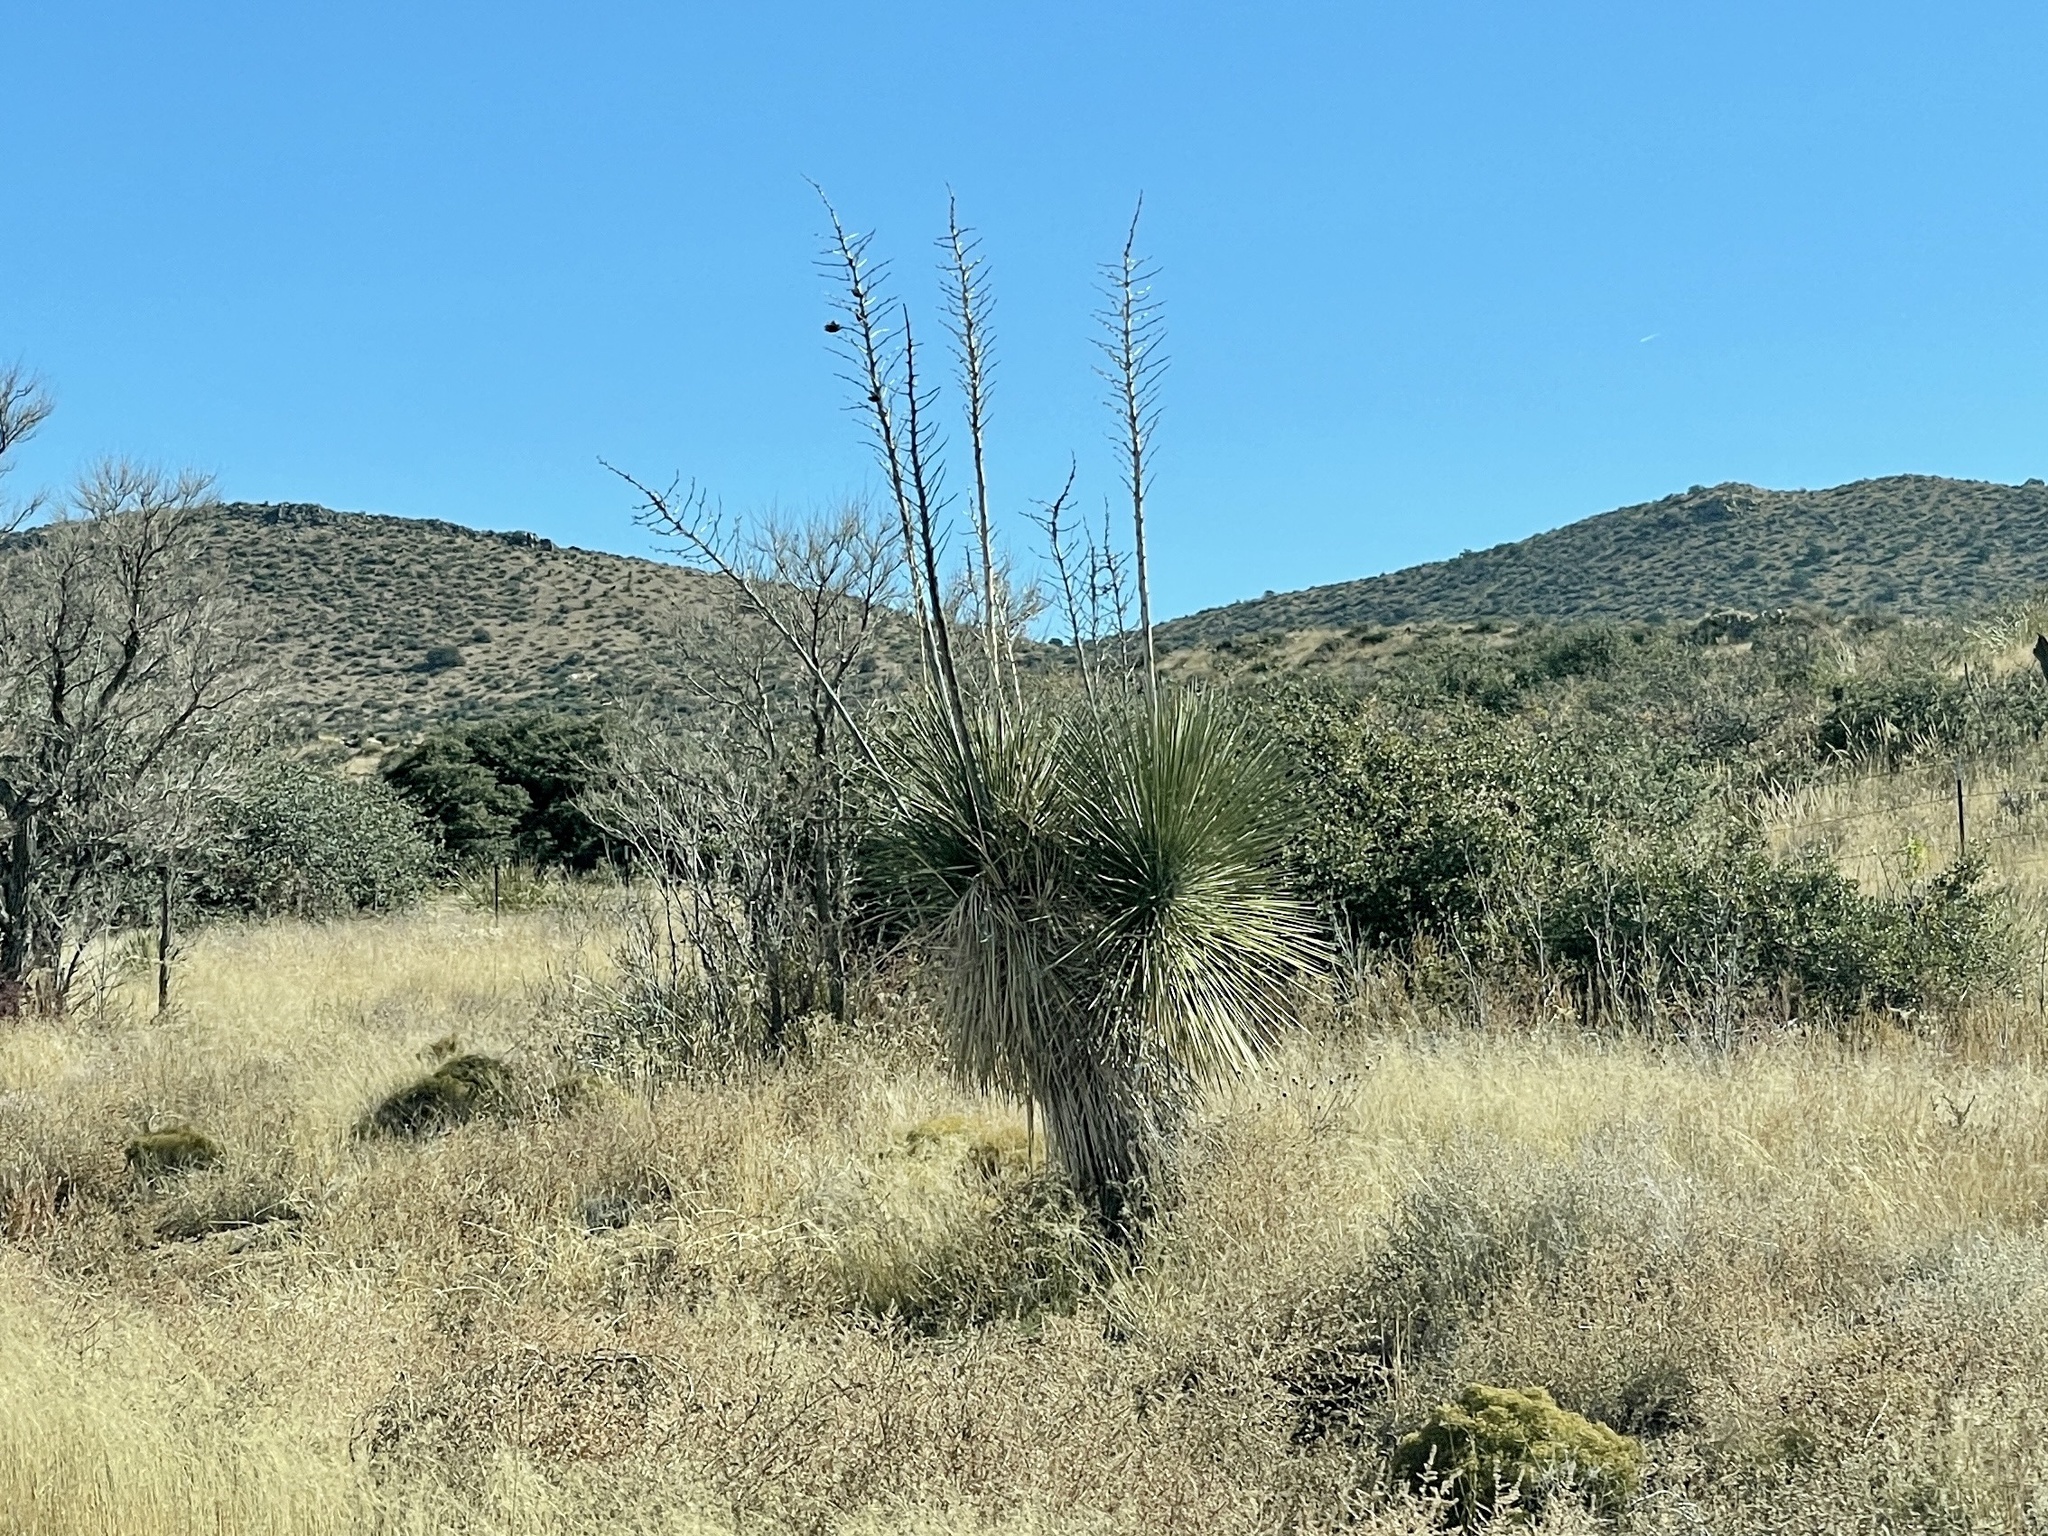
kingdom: Plantae
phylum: Tracheophyta
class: Liliopsida
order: Asparagales
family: Asparagaceae
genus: Yucca
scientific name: Yucca elata
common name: Palmella
